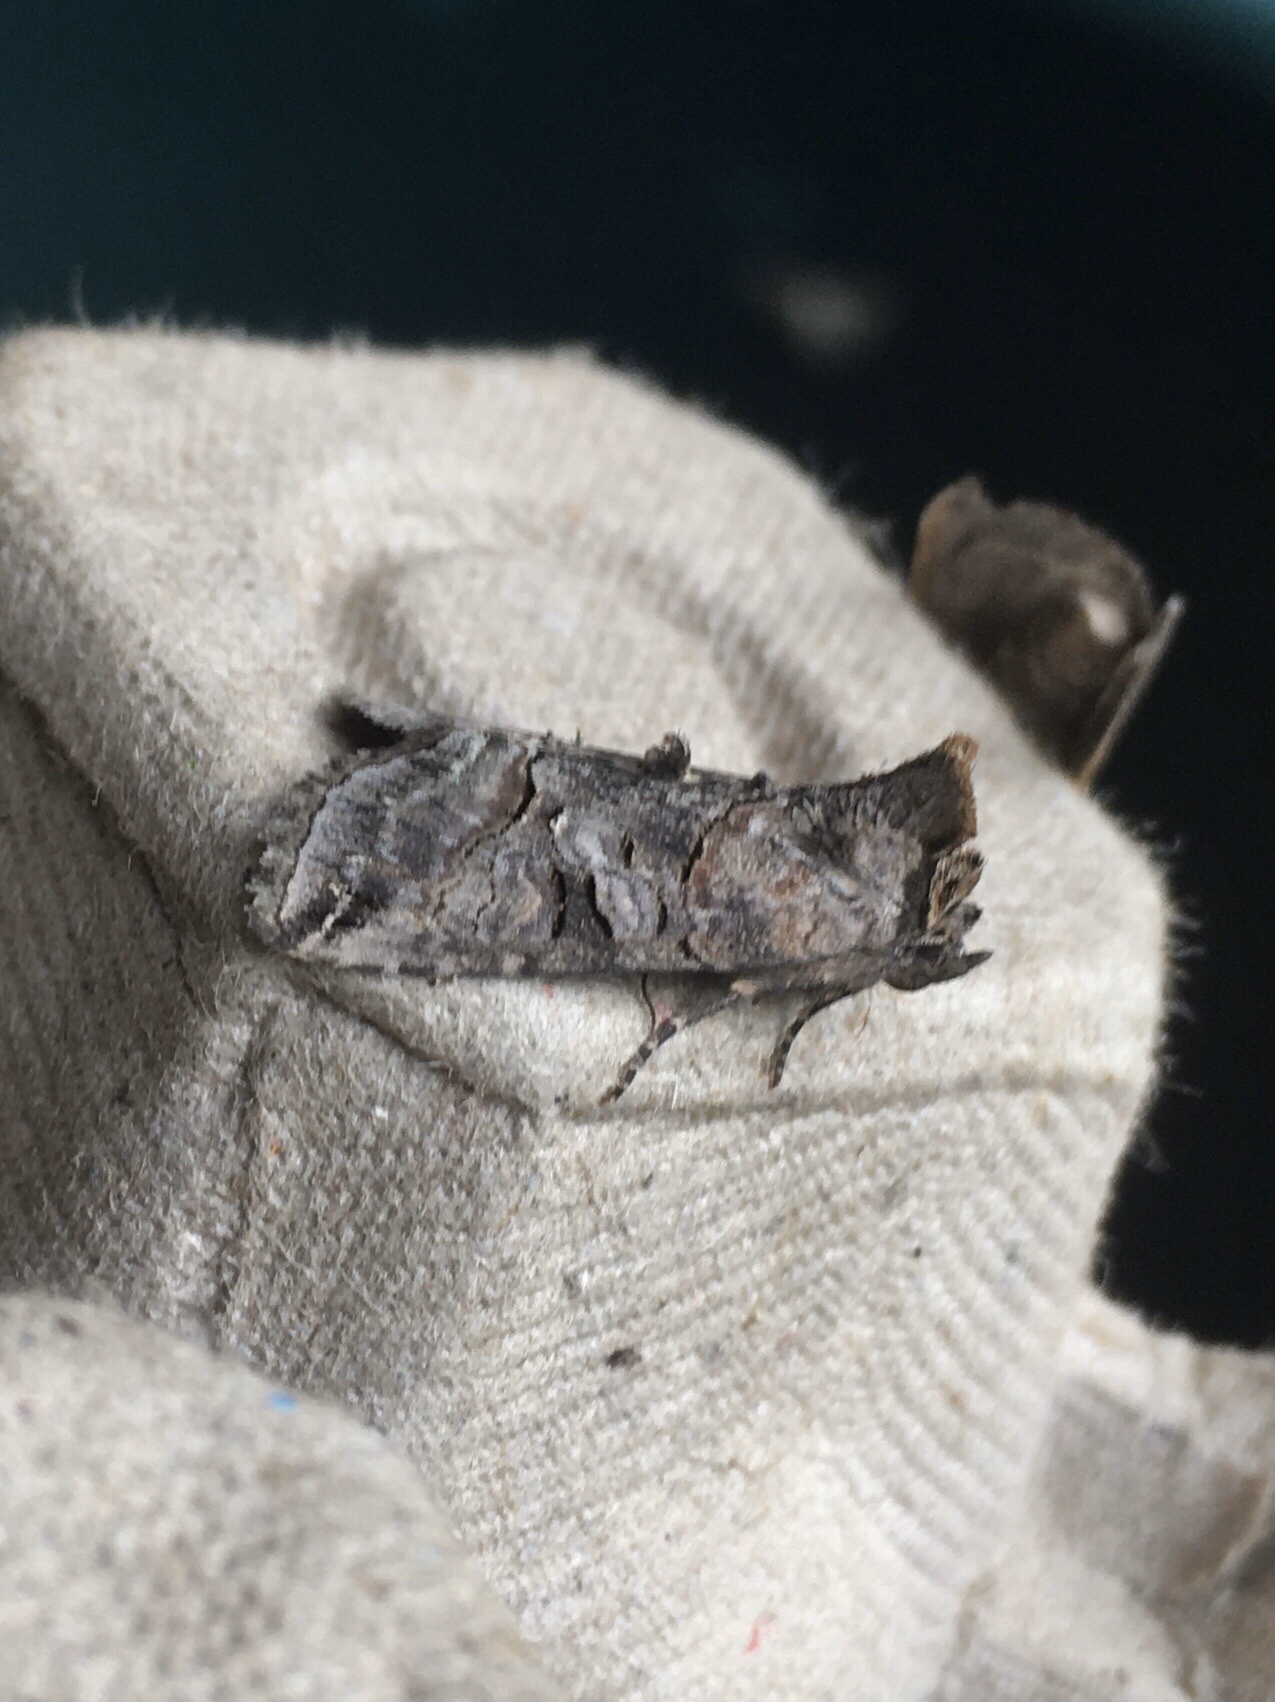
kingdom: Animalia
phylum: Arthropoda
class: Insecta
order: Lepidoptera
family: Noctuidae
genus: Abrostola
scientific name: Abrostola urentis
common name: Spectacled nettle moth
